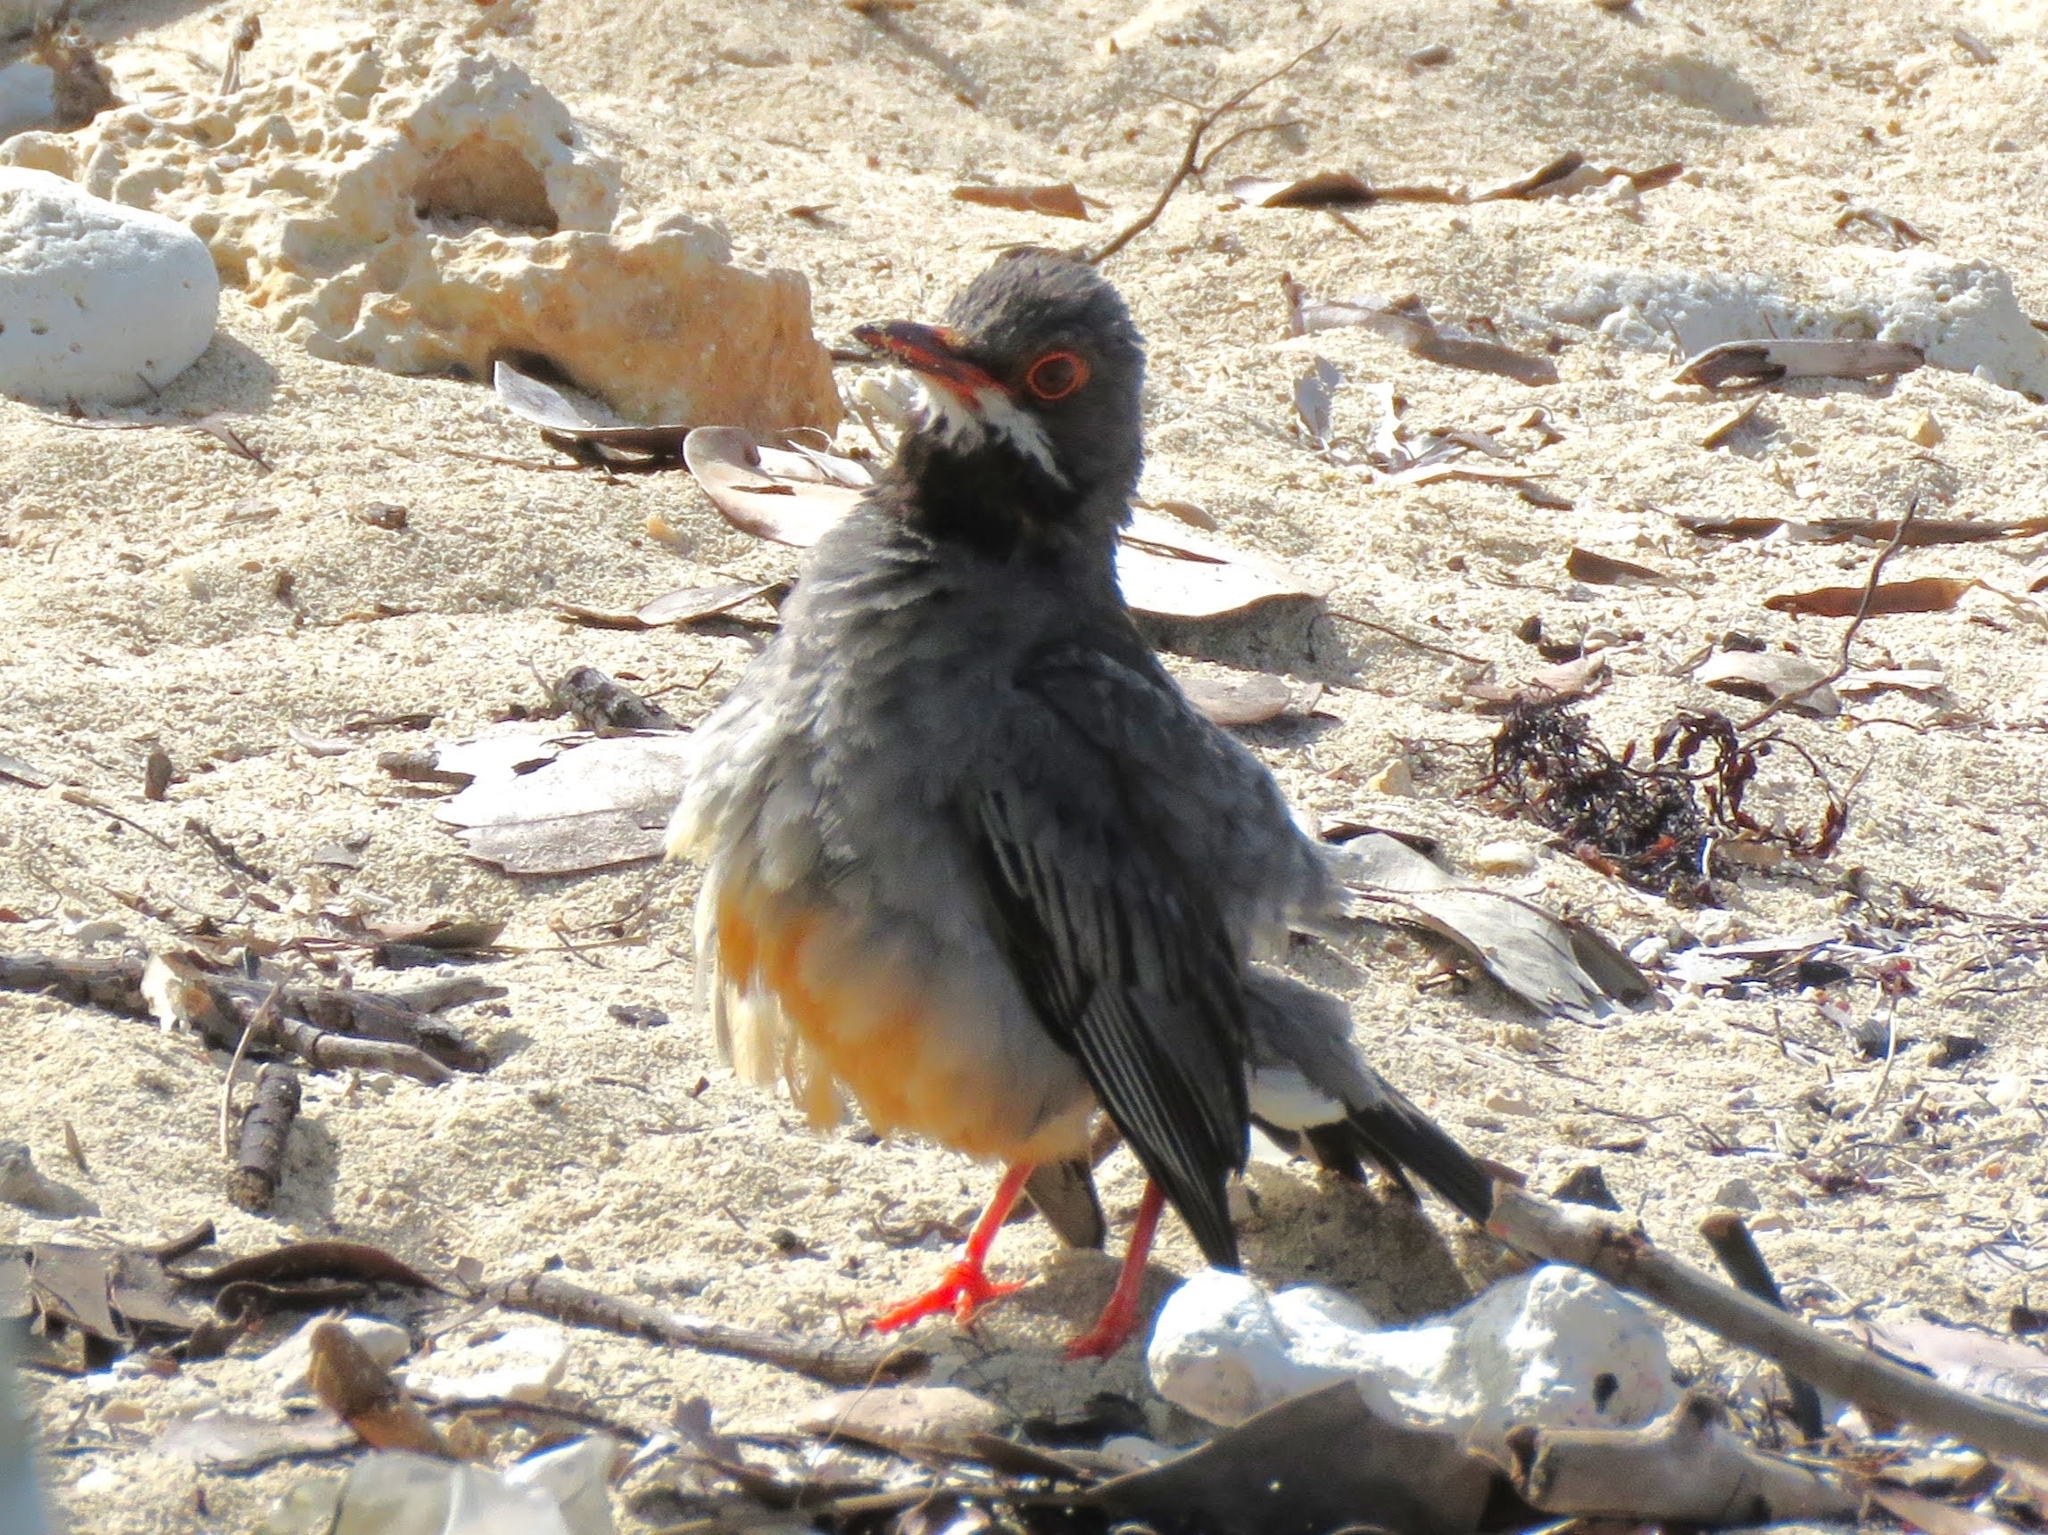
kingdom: Animalia
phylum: Chordata
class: Aves
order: Passeriformes
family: Turdidae
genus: Turdus
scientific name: Turdus plumbeus
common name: Red-legged thrush
